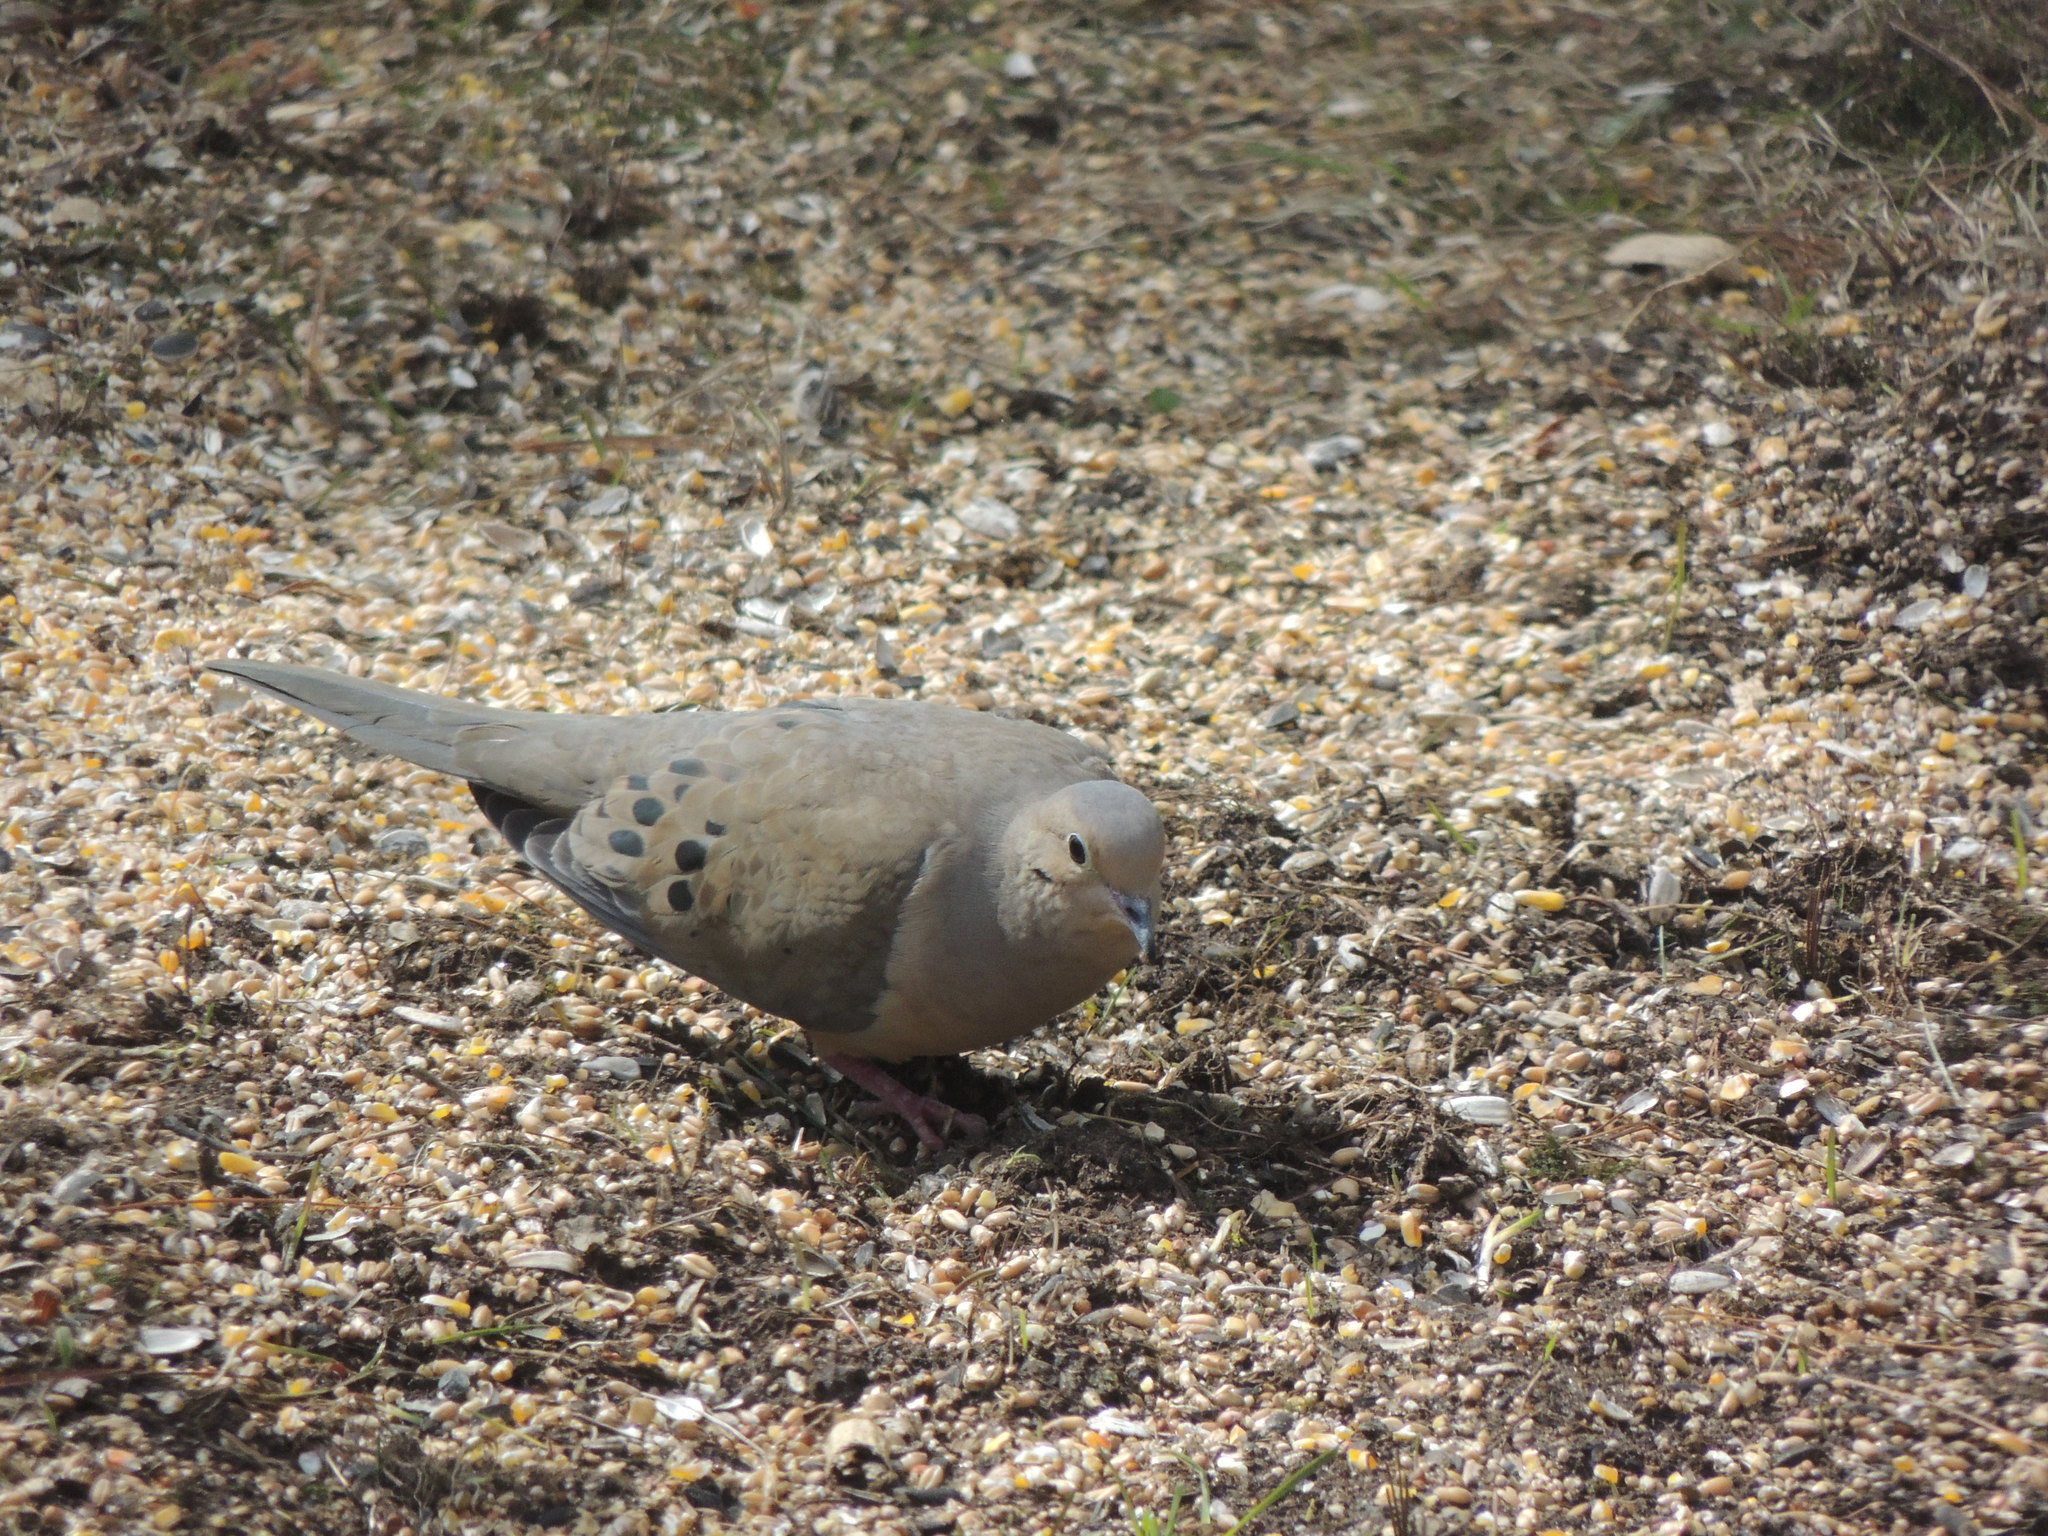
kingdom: Animalia
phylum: Chordata
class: Aves
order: Columbiformes
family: Columbidae
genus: Zenaida
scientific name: Zenaida macroura
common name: Mourning dove
